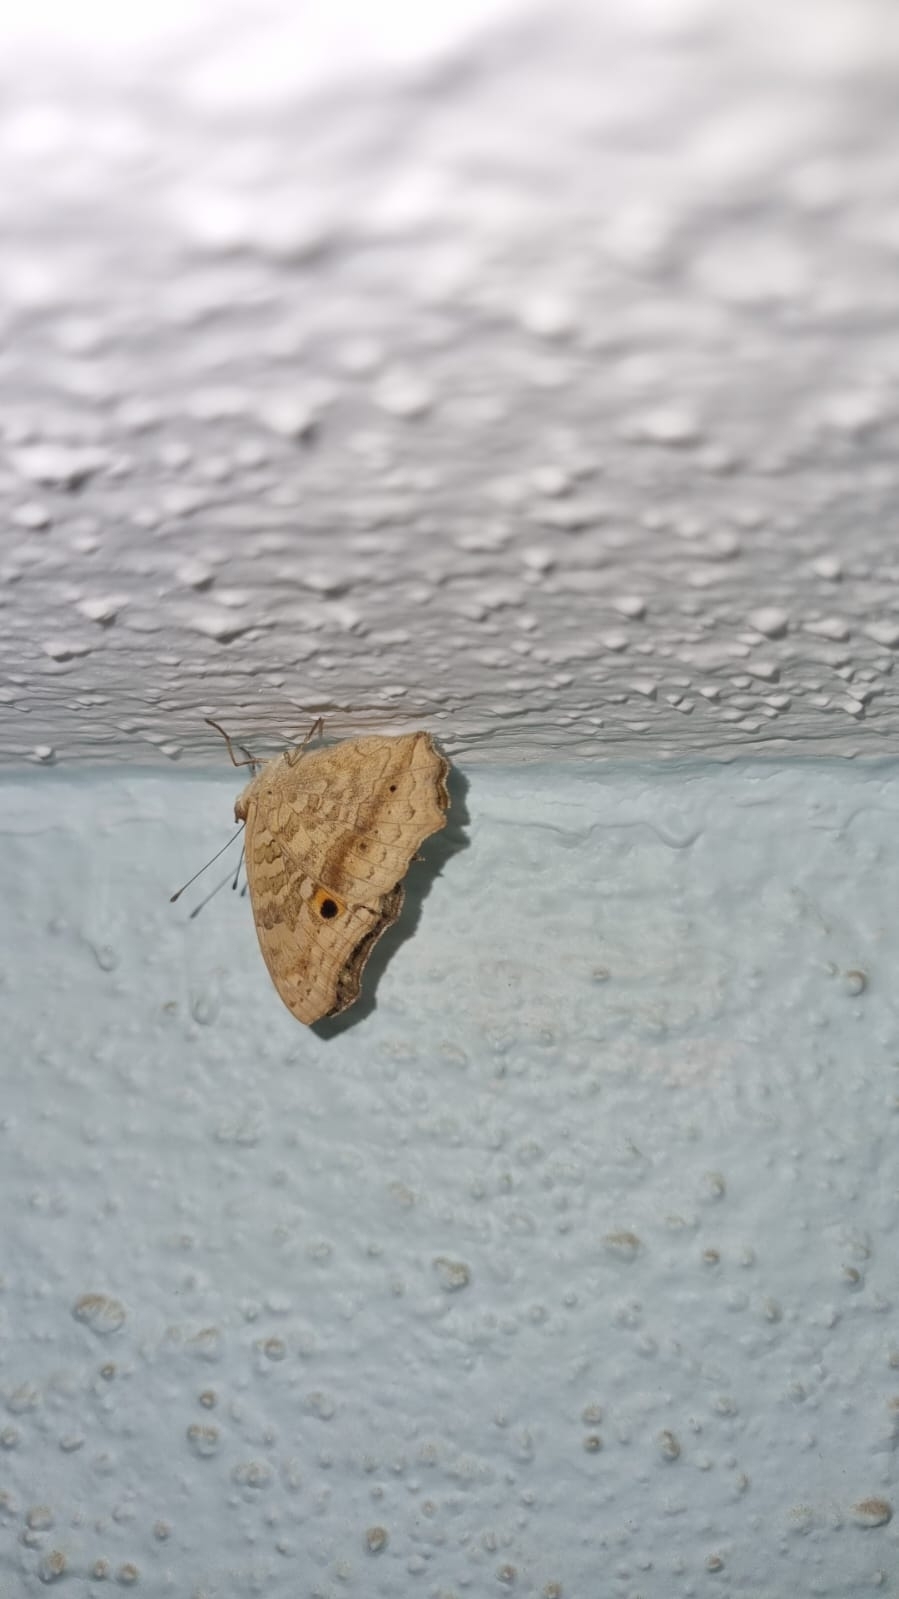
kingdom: Animalia
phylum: Arthropoda
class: Insecta
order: Lepidoptera
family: Nymphalidae
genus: Junonia
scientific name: Junonia lemonias
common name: Lemon pansy
